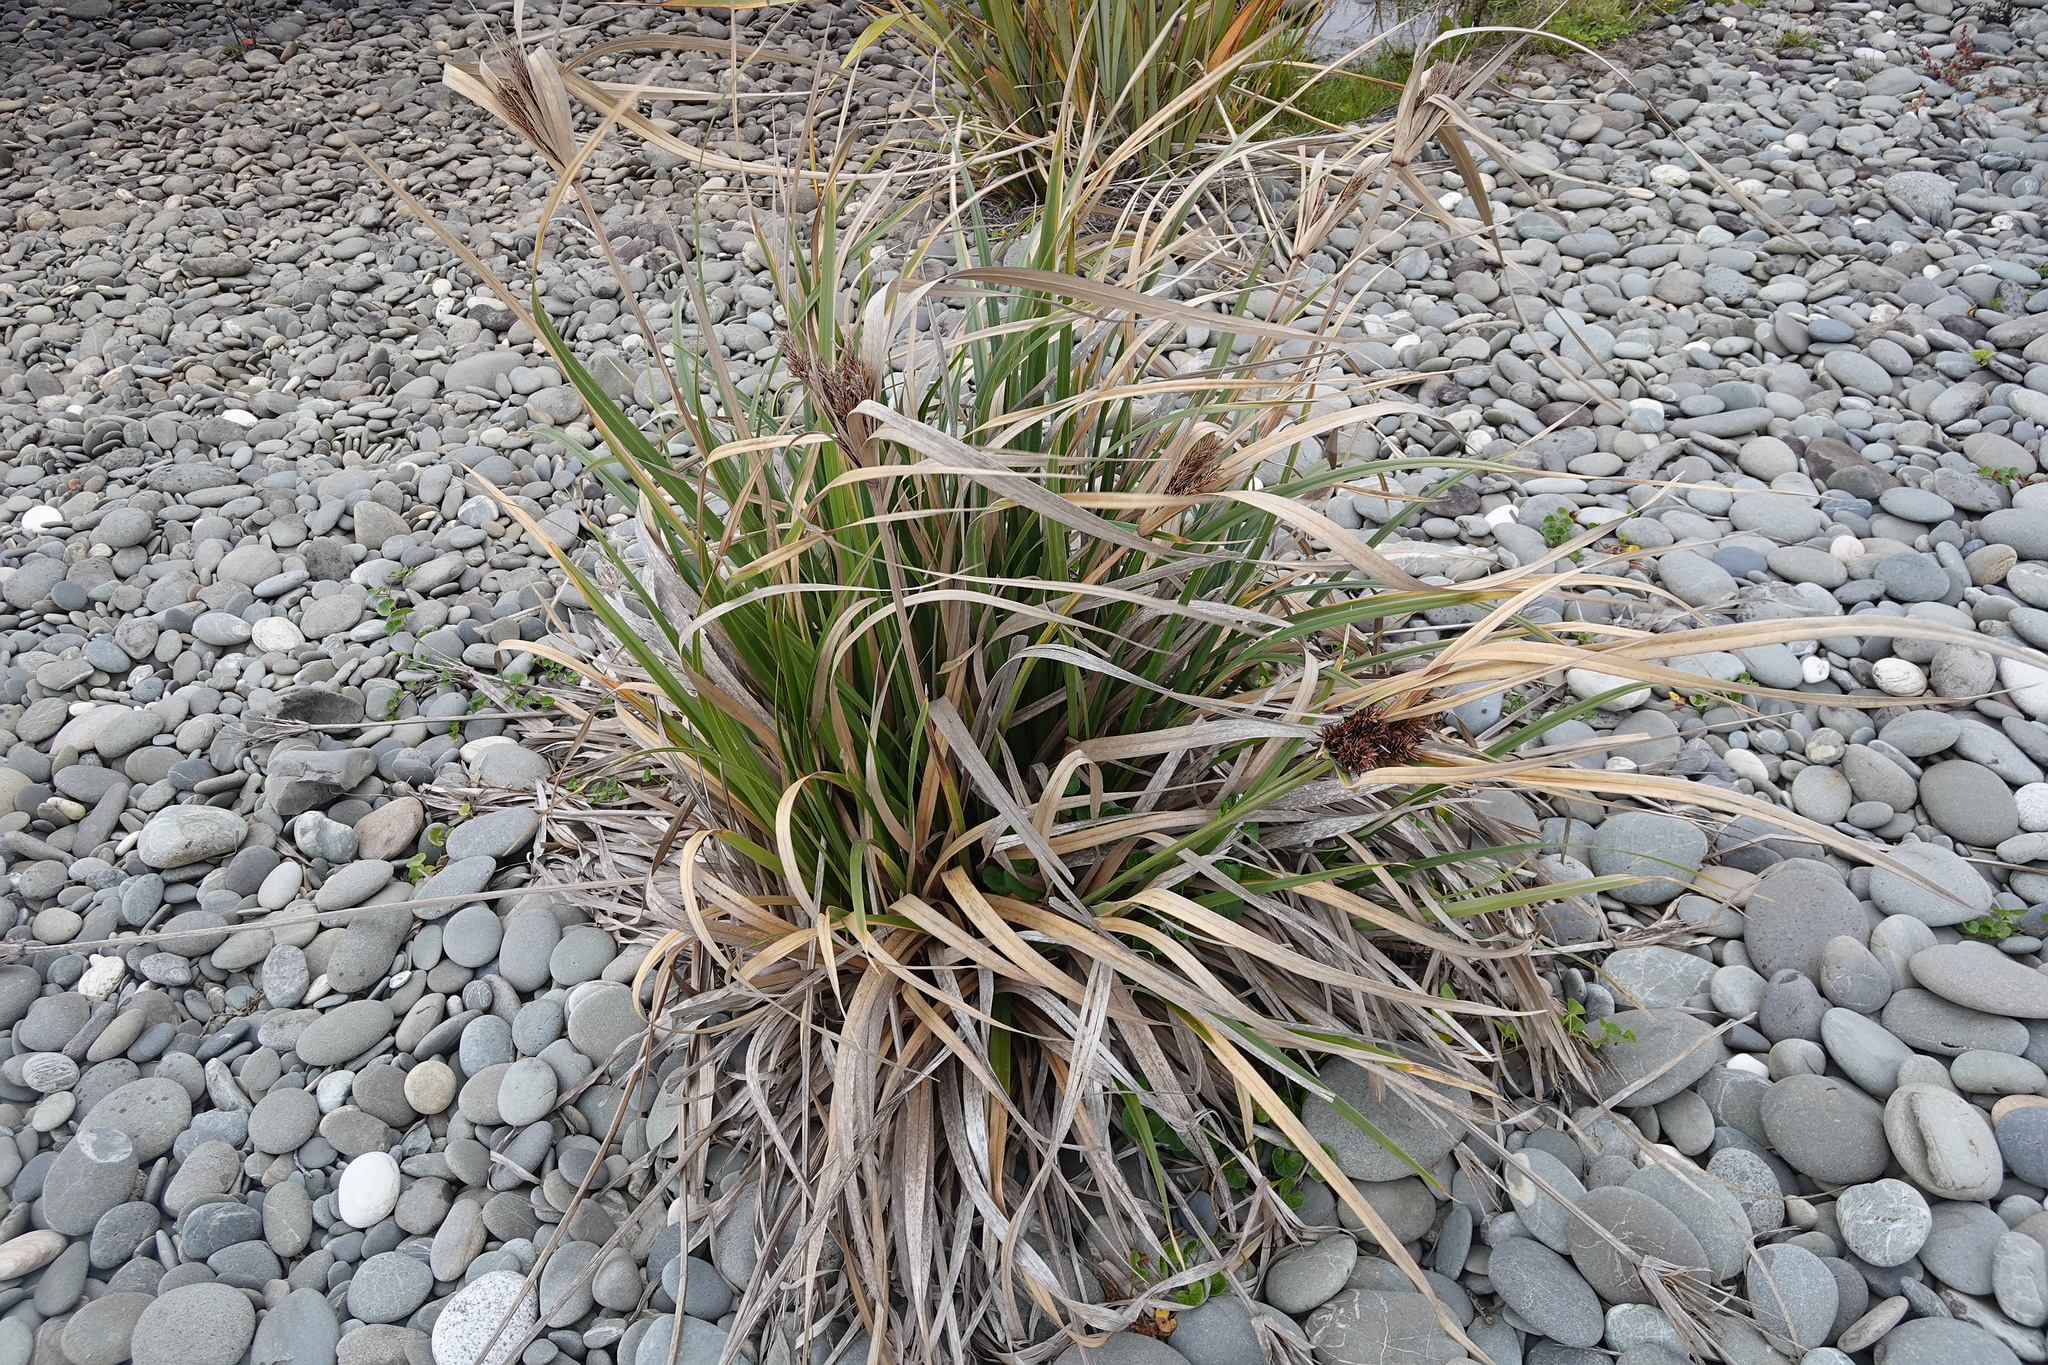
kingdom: Plantae
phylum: Tracheophyta
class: Liliopsida
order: Poales
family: Cyperaceae
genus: Cyperus
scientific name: Cyperus ustulatus
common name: Giant umbrella-sedge
